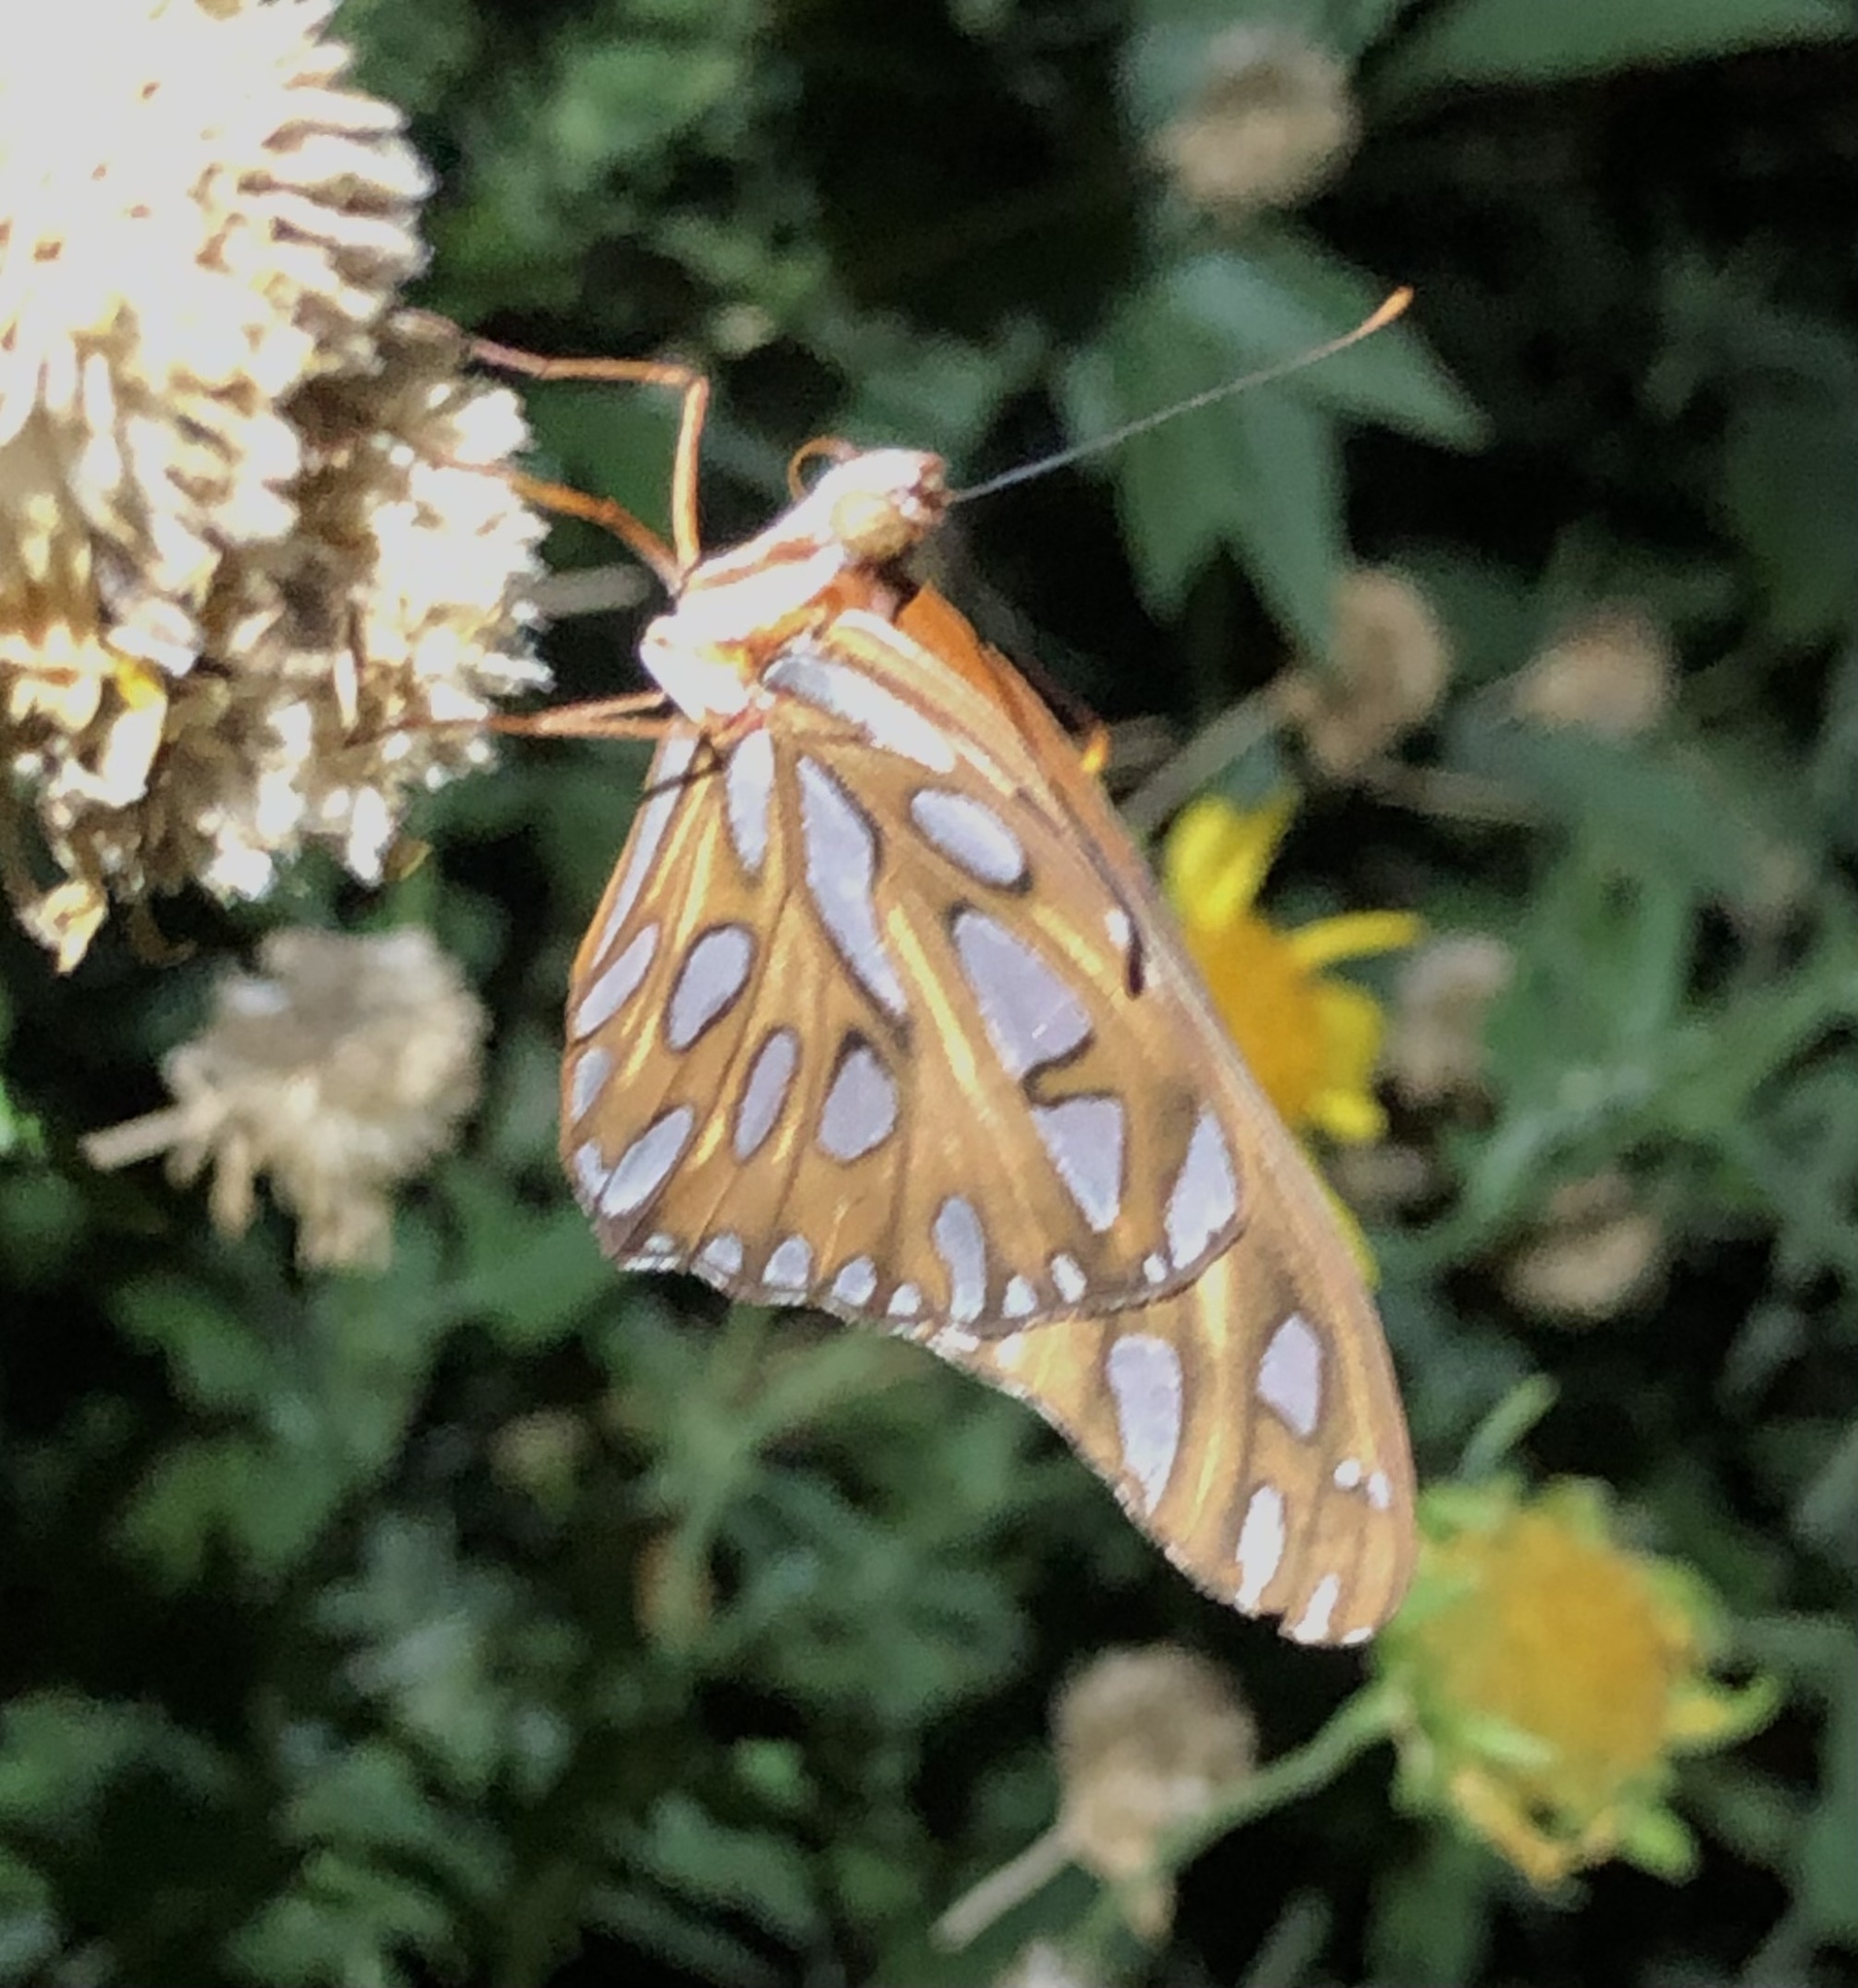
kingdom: Animalia
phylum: Arthropoda
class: Insecta
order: Lepidoptera
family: Nymphalidae
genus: Dione
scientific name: Dione vanillae
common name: Gulf fritillary
